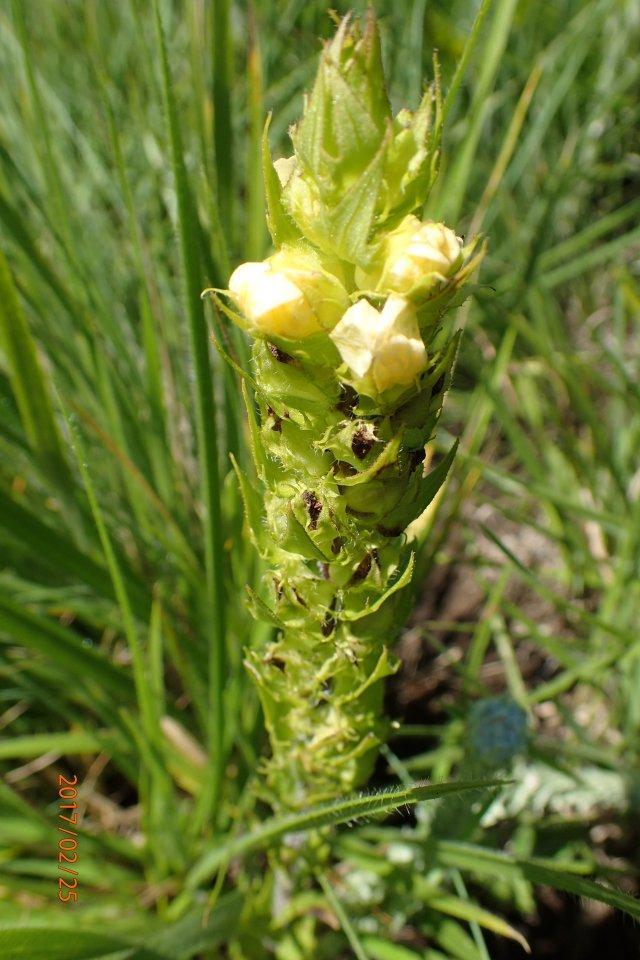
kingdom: Plantae
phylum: Tracheophyta
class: Magnoliopsida
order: Lamiales
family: Orobanchaceae
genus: Alectra
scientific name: Alectra sessiliflora
